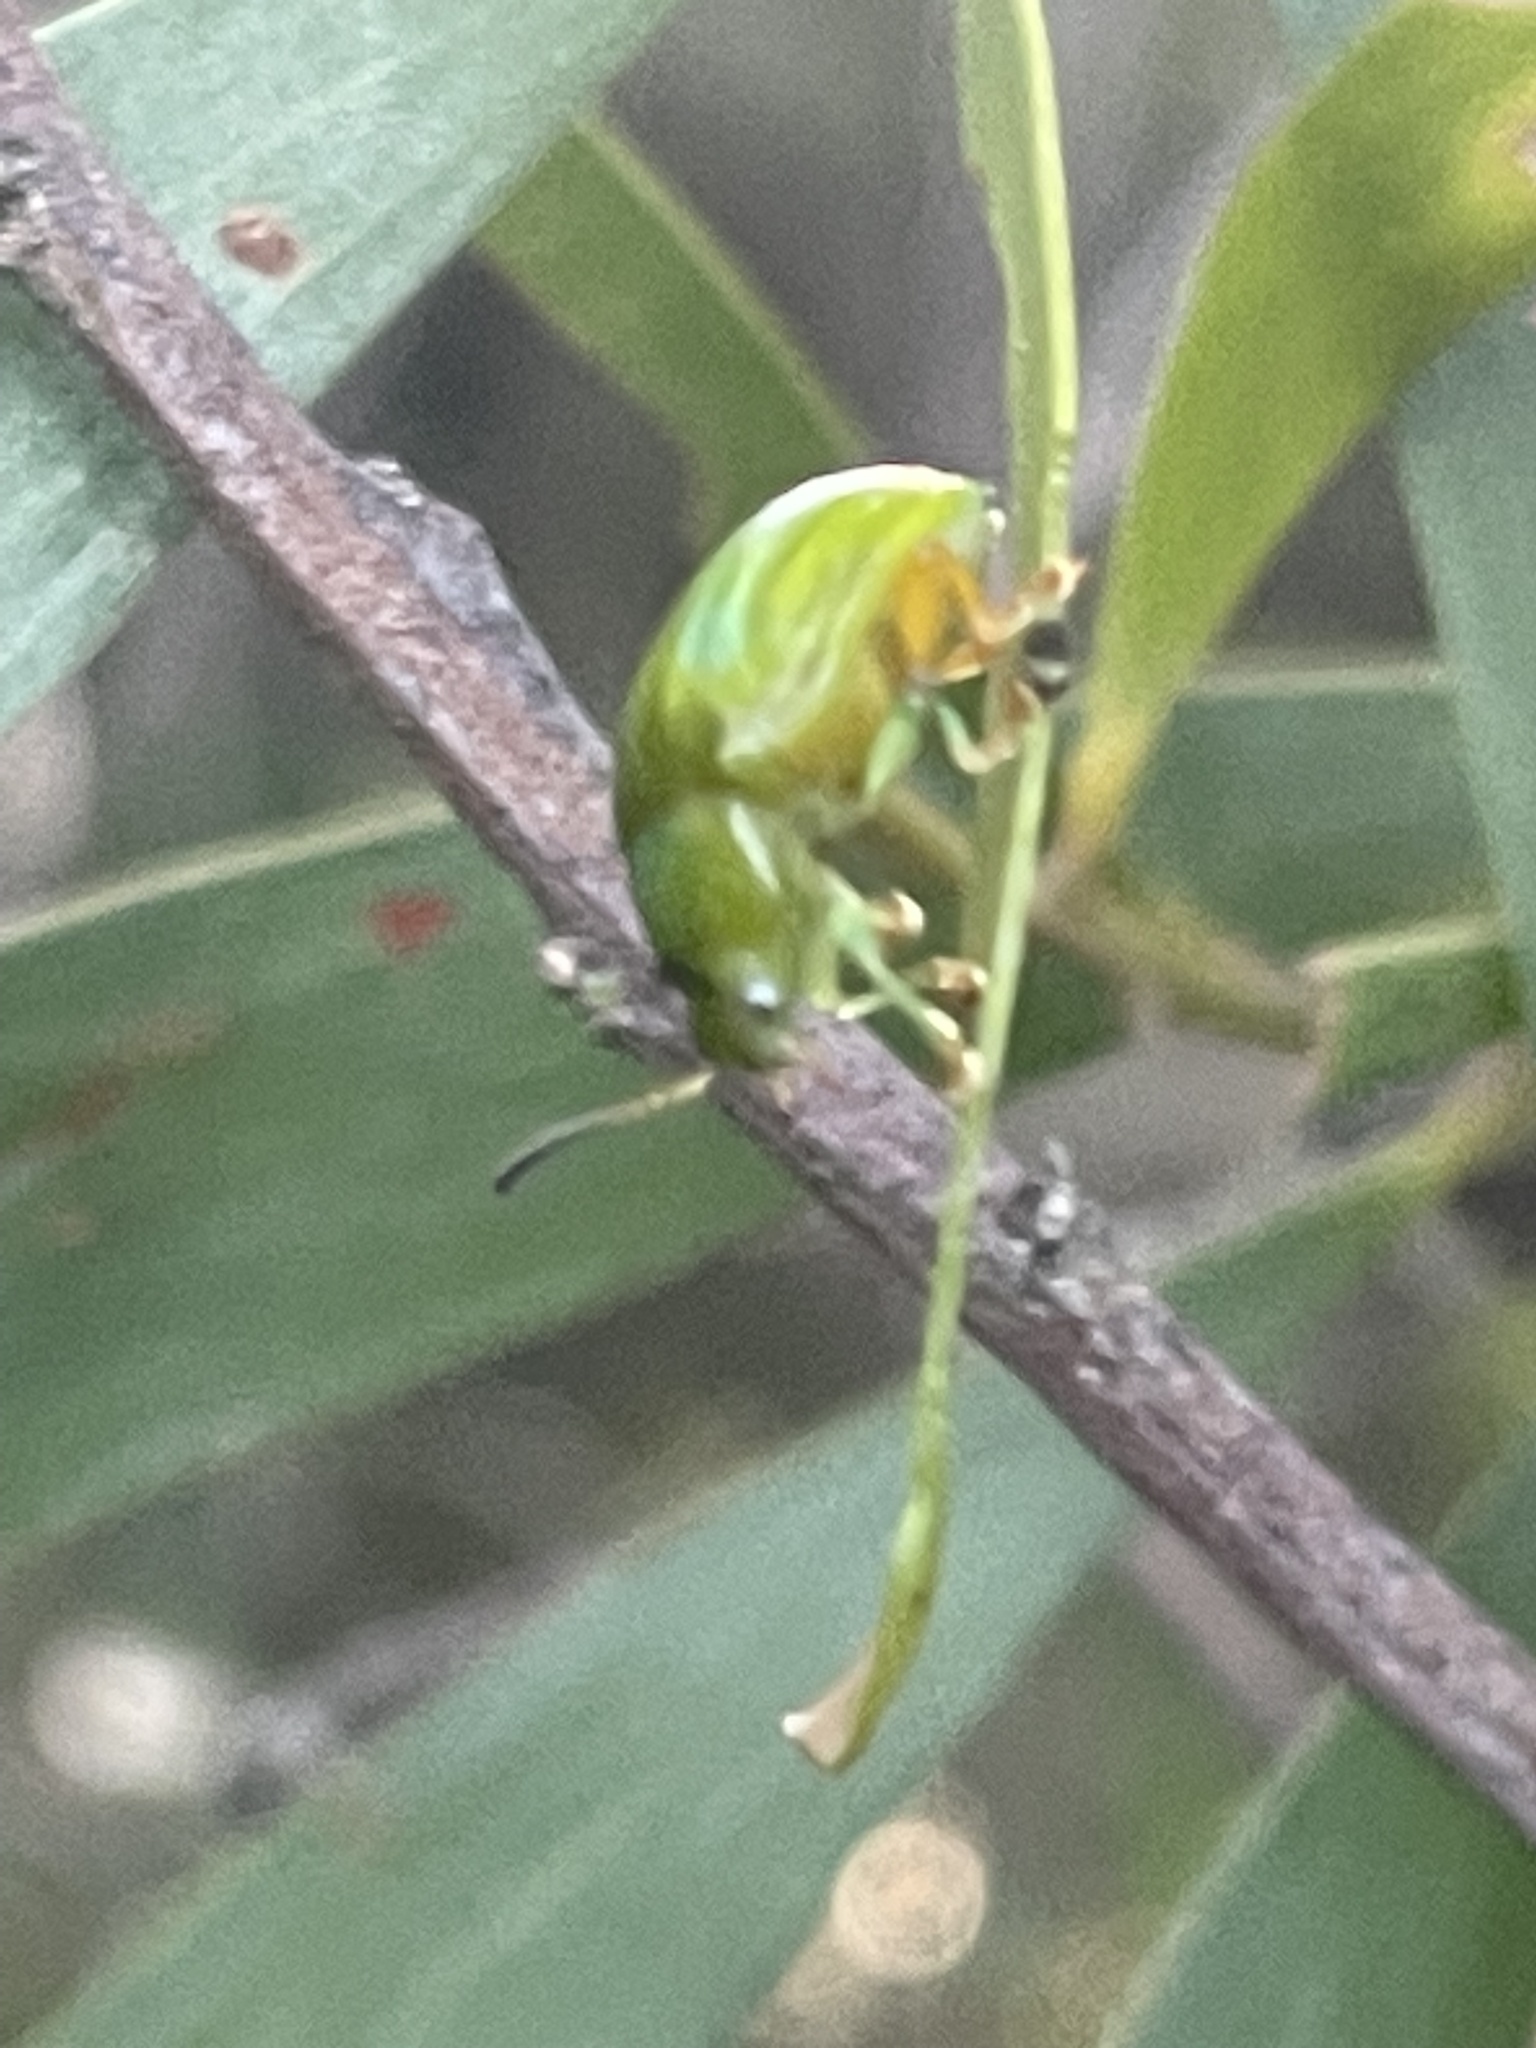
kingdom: Animalia
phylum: Arthropoda
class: Insecta
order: Coleoptera
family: Chrysomelidae
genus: Calomela
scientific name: Calomela
